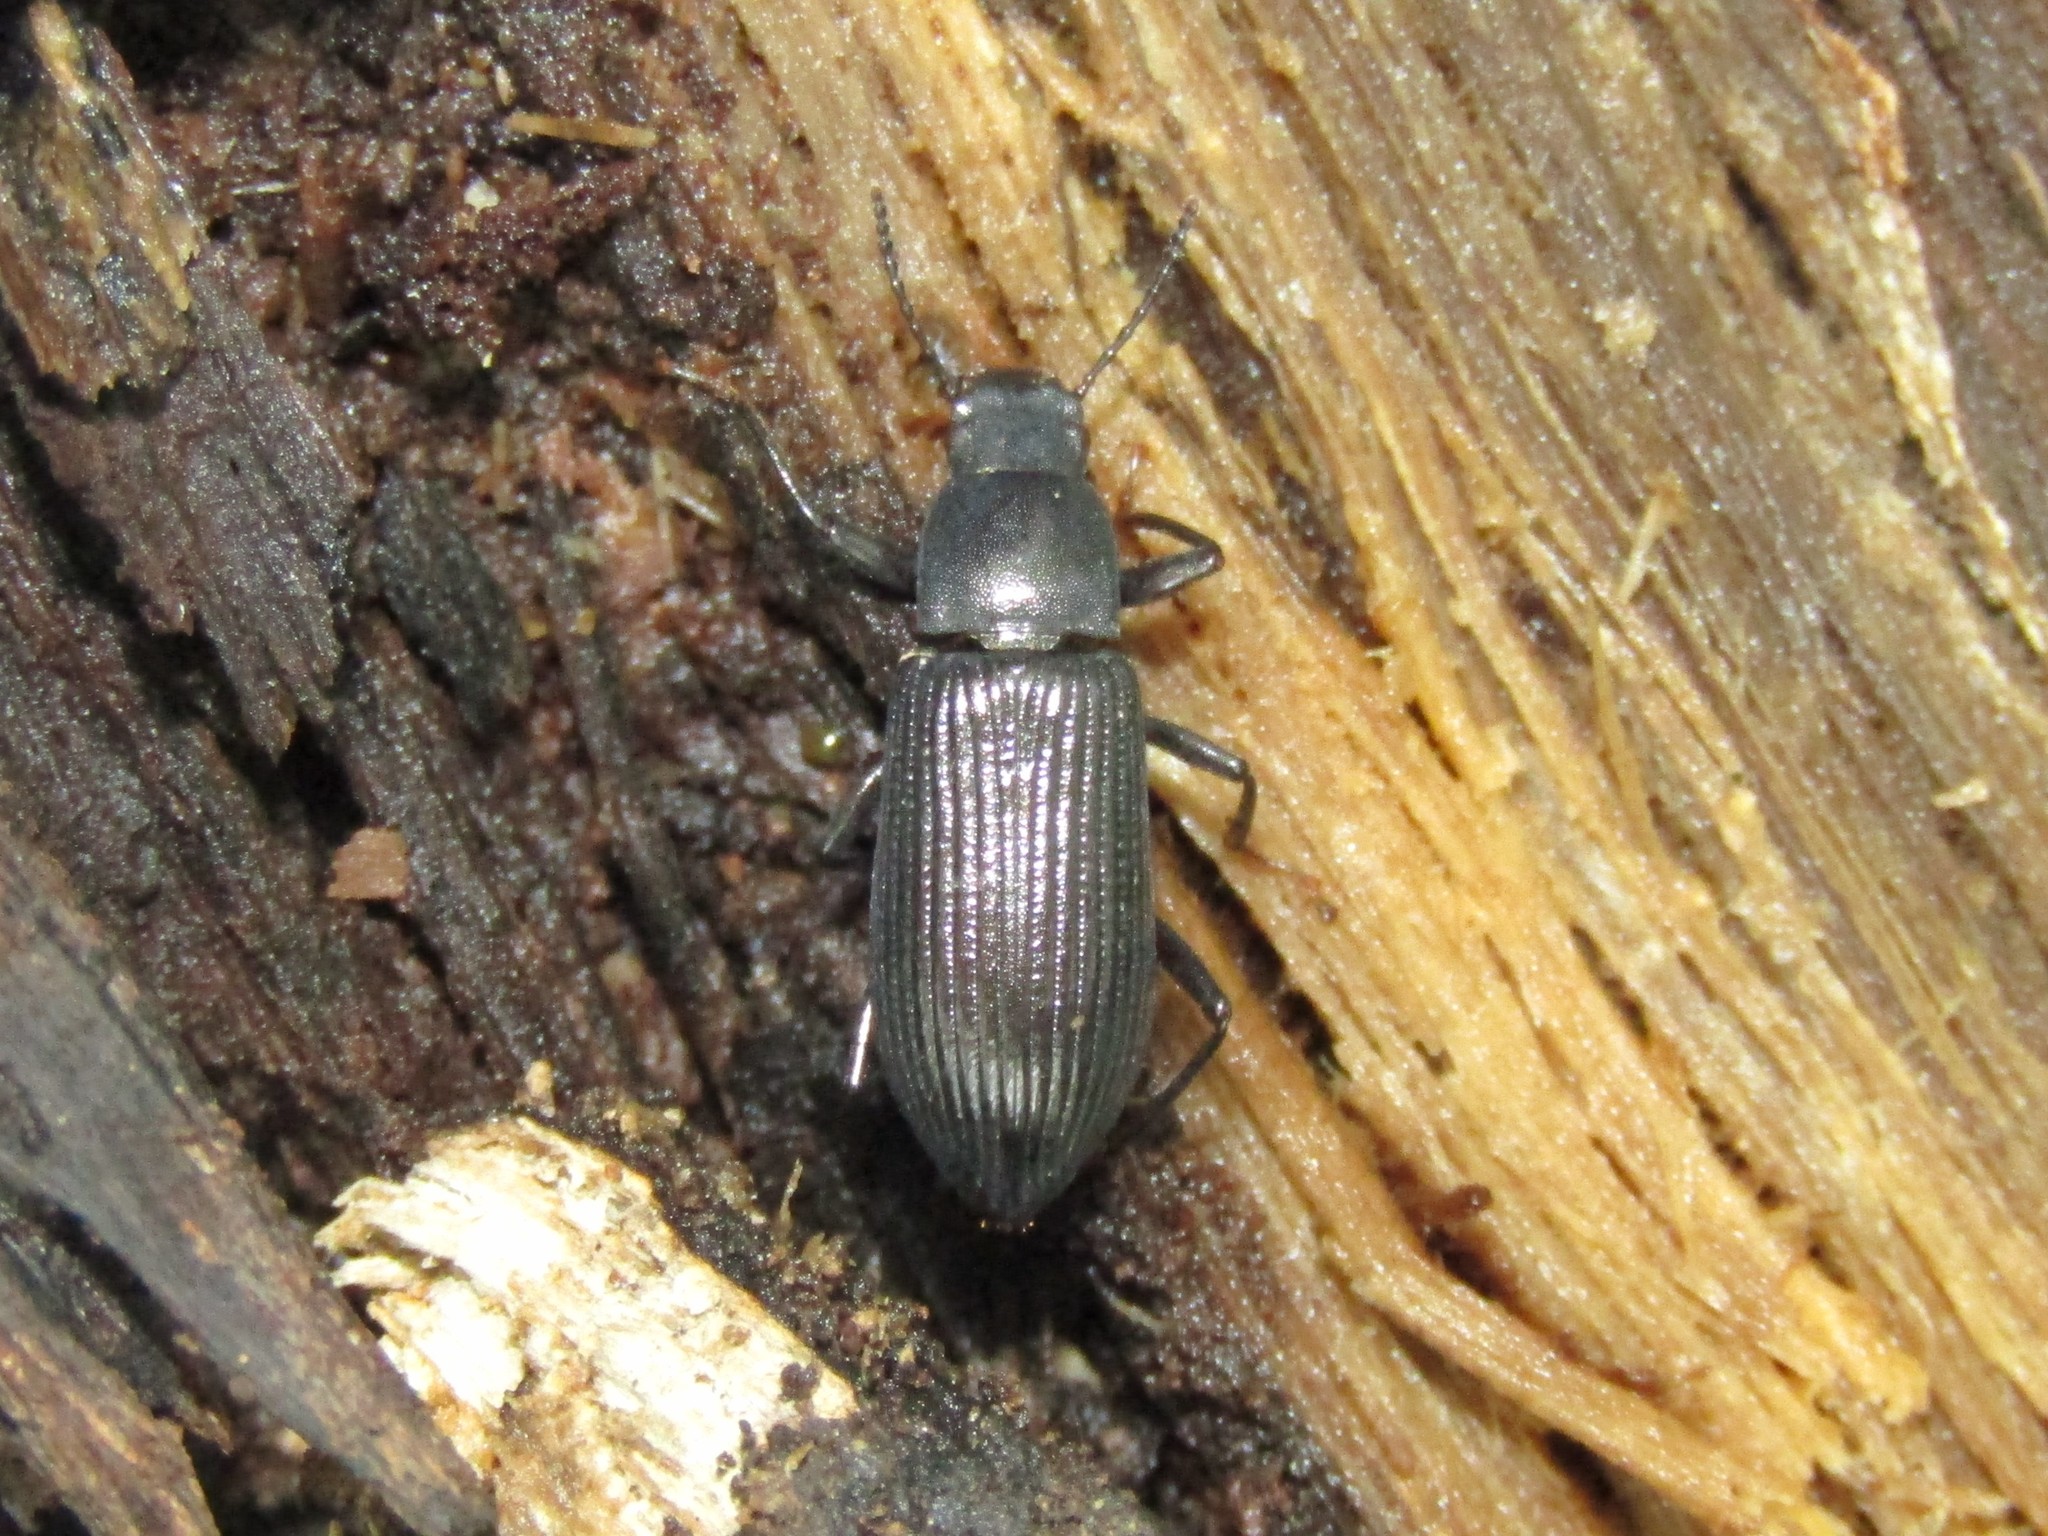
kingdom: Animalia
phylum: Arthropoda
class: Insecta
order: Coleoptera
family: Tenebrionidae
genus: Xylopinus
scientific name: Xylopinus saperdoides
